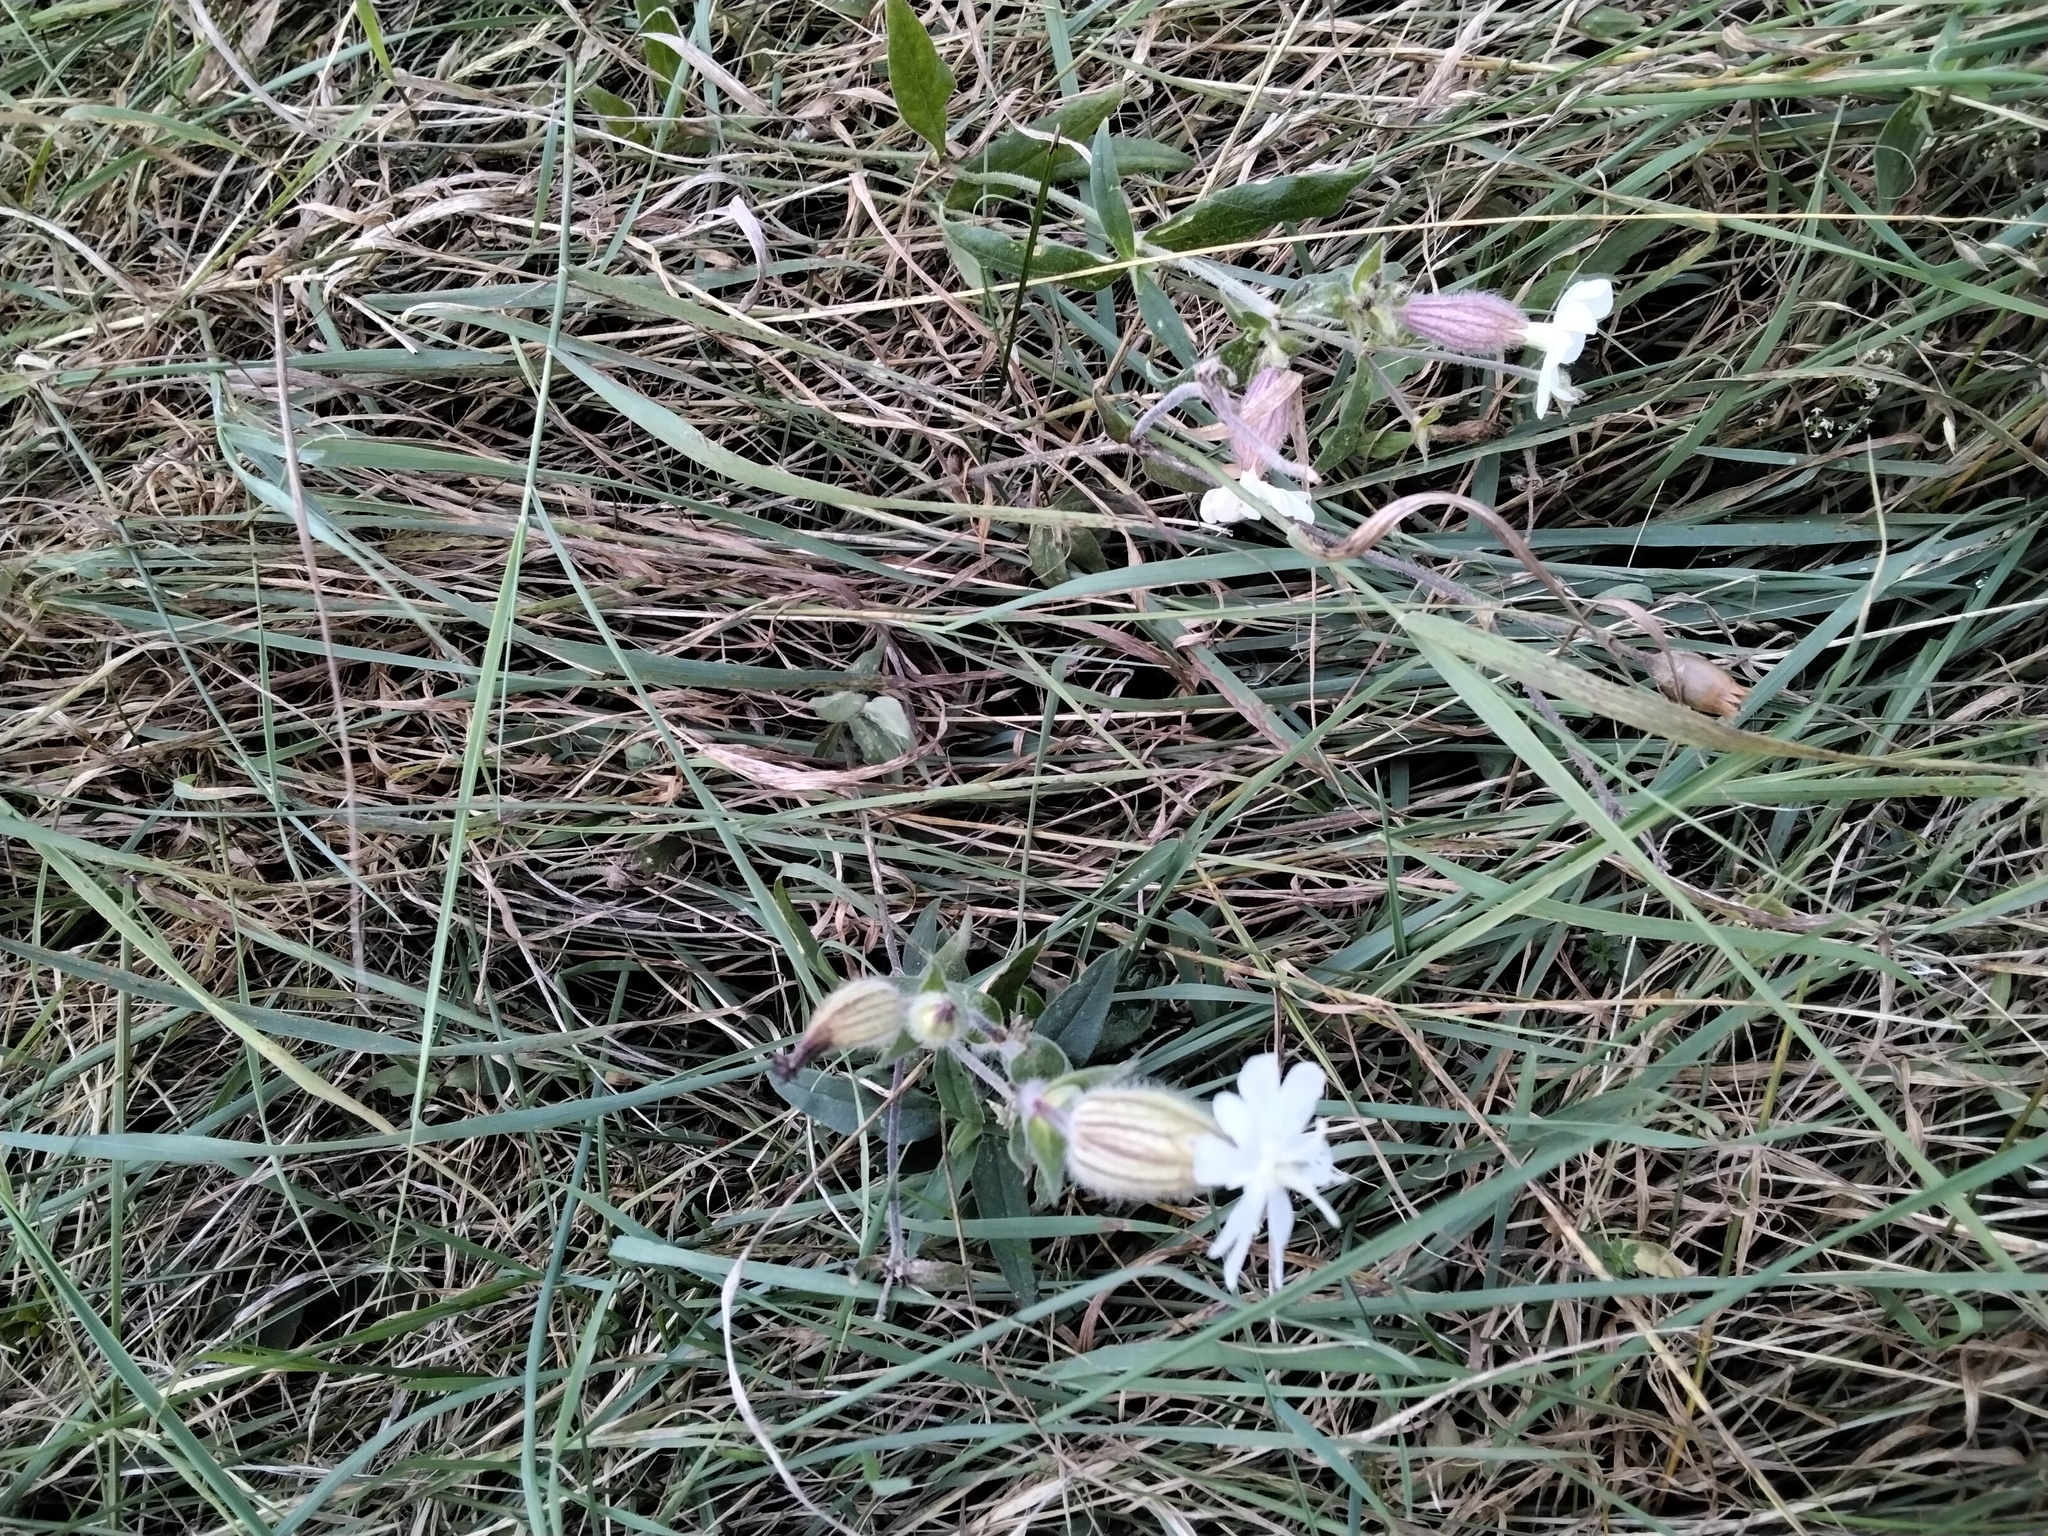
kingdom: Plantae
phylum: Tracheophyta
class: Magnoliopsida
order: Caryophyllales
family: Caryophyllaceae
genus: Silene
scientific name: Silene latifolia
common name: White campion
